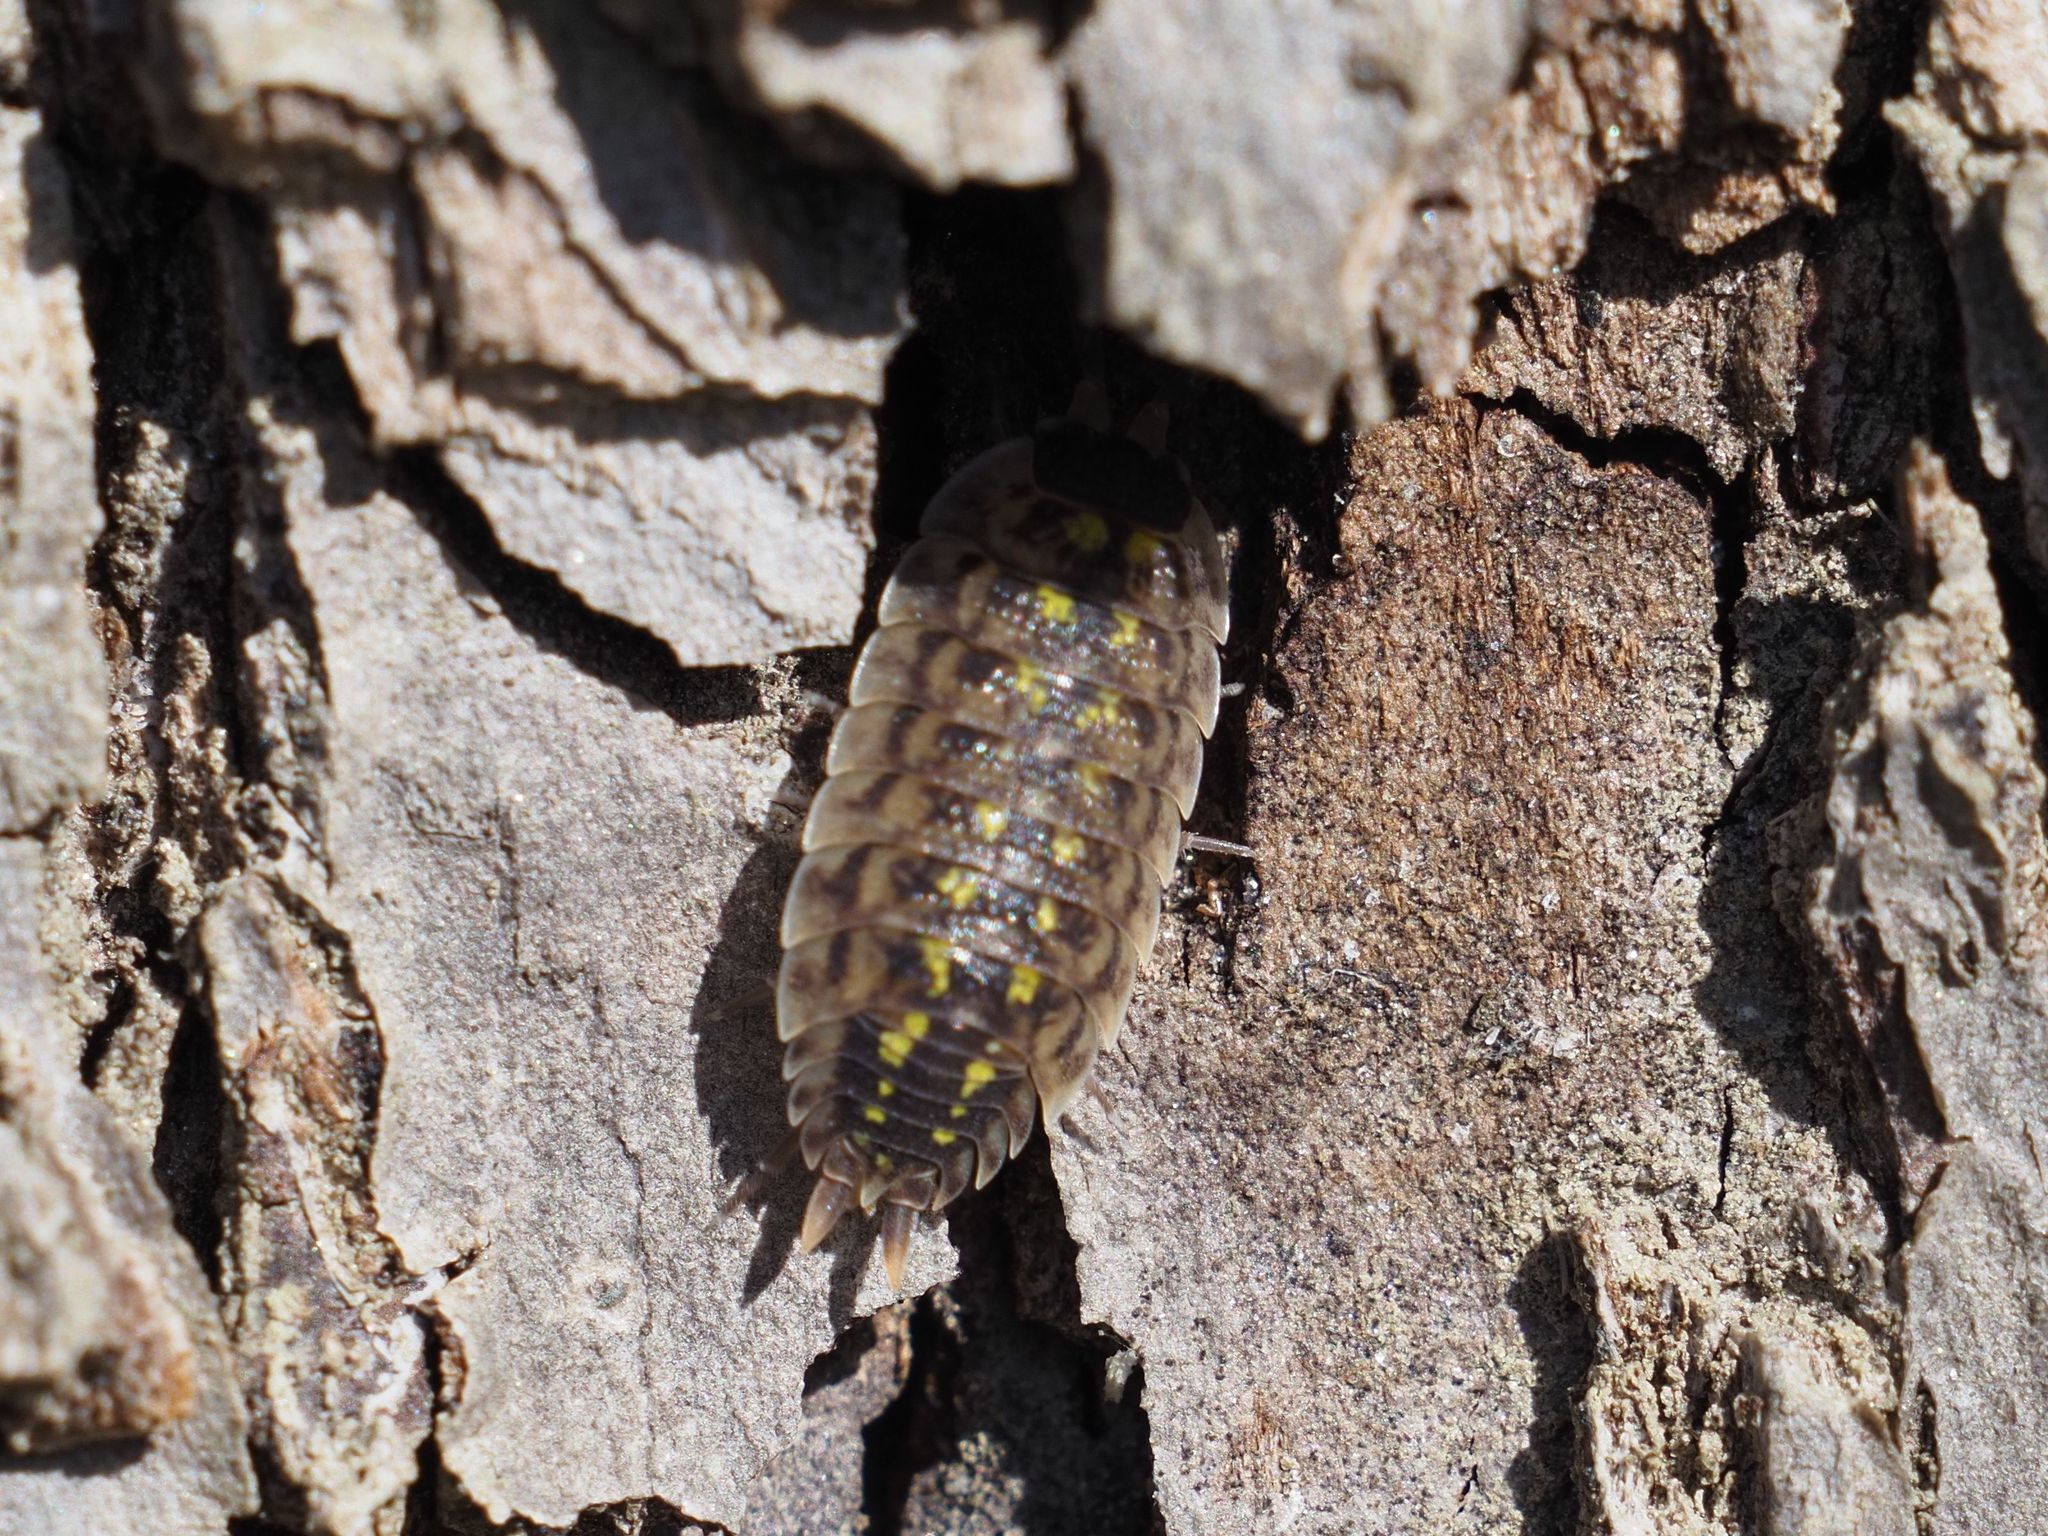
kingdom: Animalia
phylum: Arthropoda
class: Malacostraca
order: Isopoda
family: Porcellionidae
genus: Porcellio
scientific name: Porcellio spinicornis
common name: Painted woodlouse
